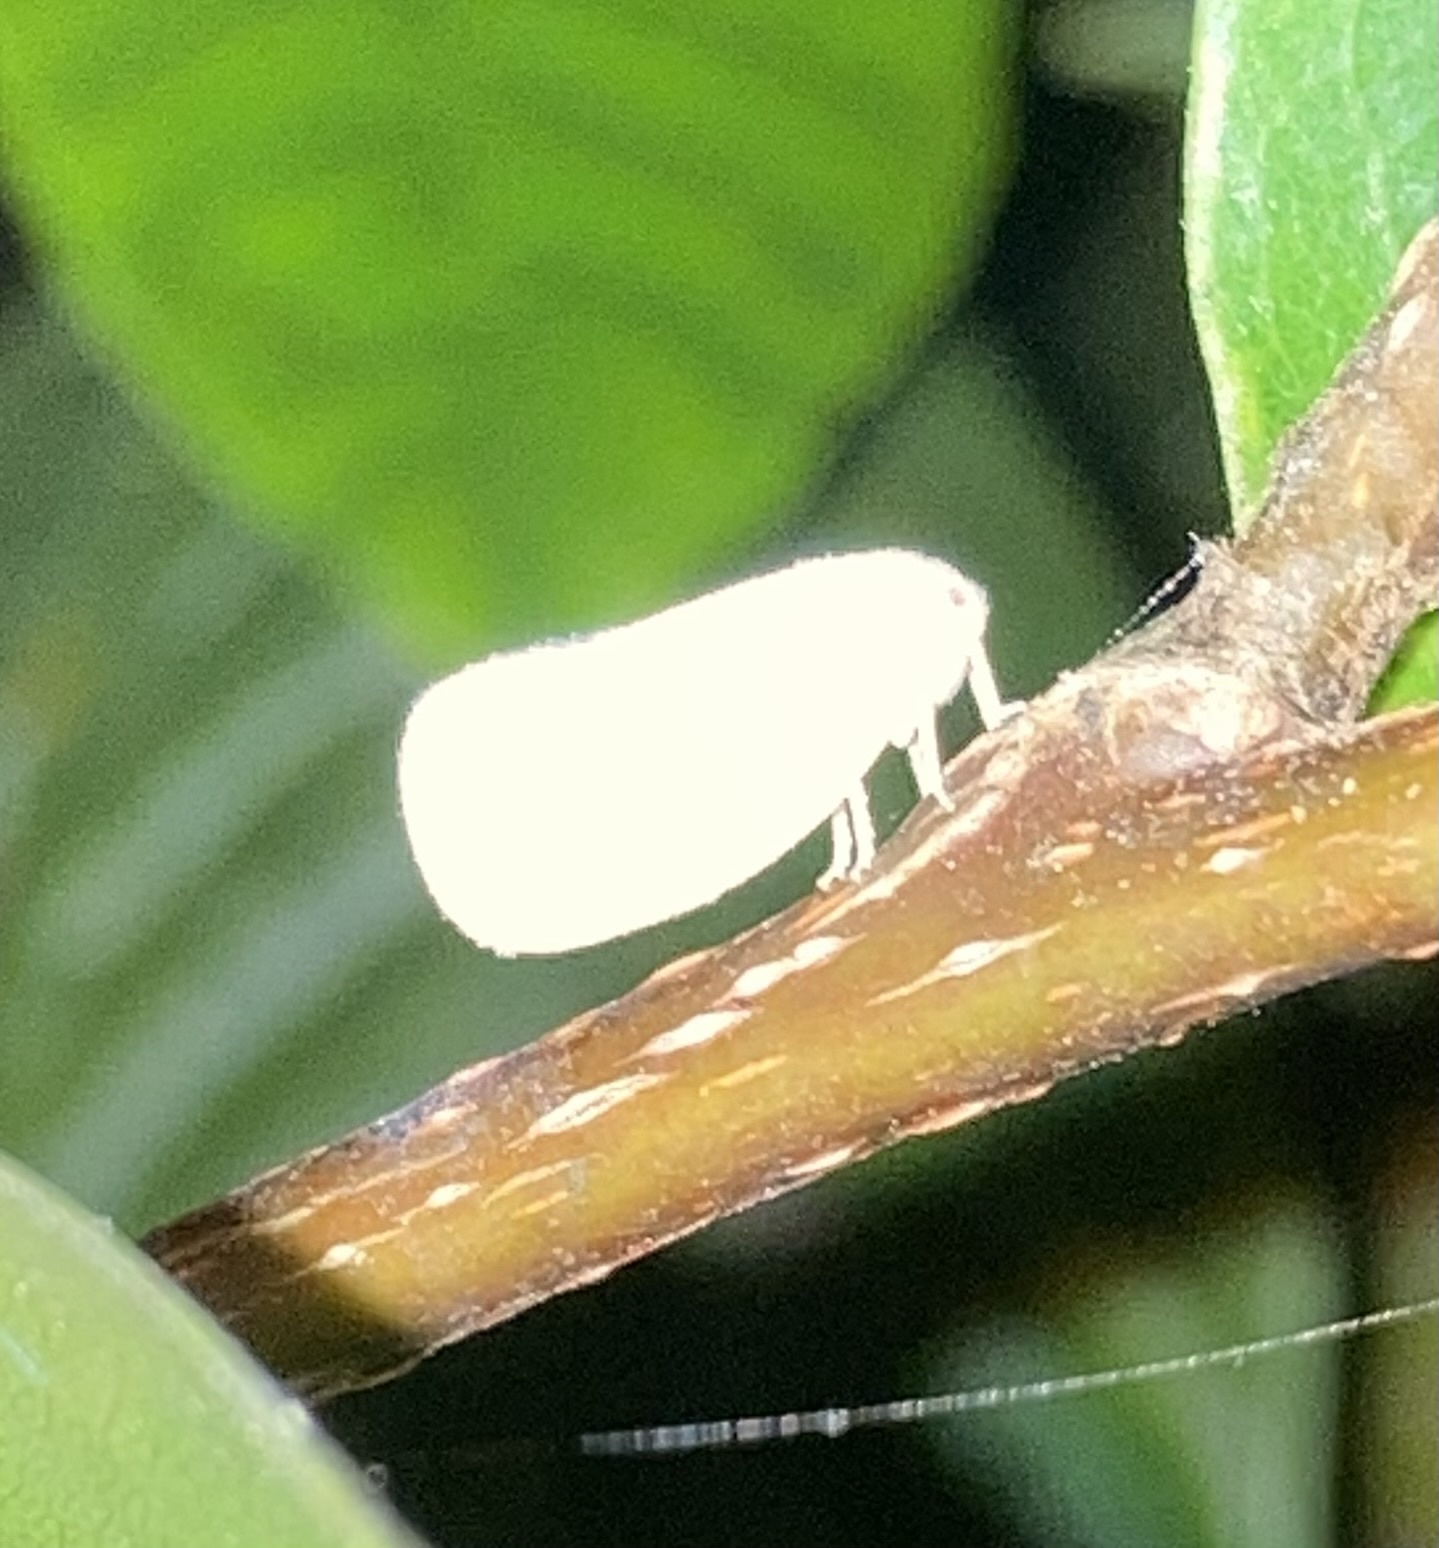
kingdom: Animalia
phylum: Arthropoda
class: Insecta
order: Hemiptera
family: Flatidae
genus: Ormenoides
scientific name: Ormenoides venusta
